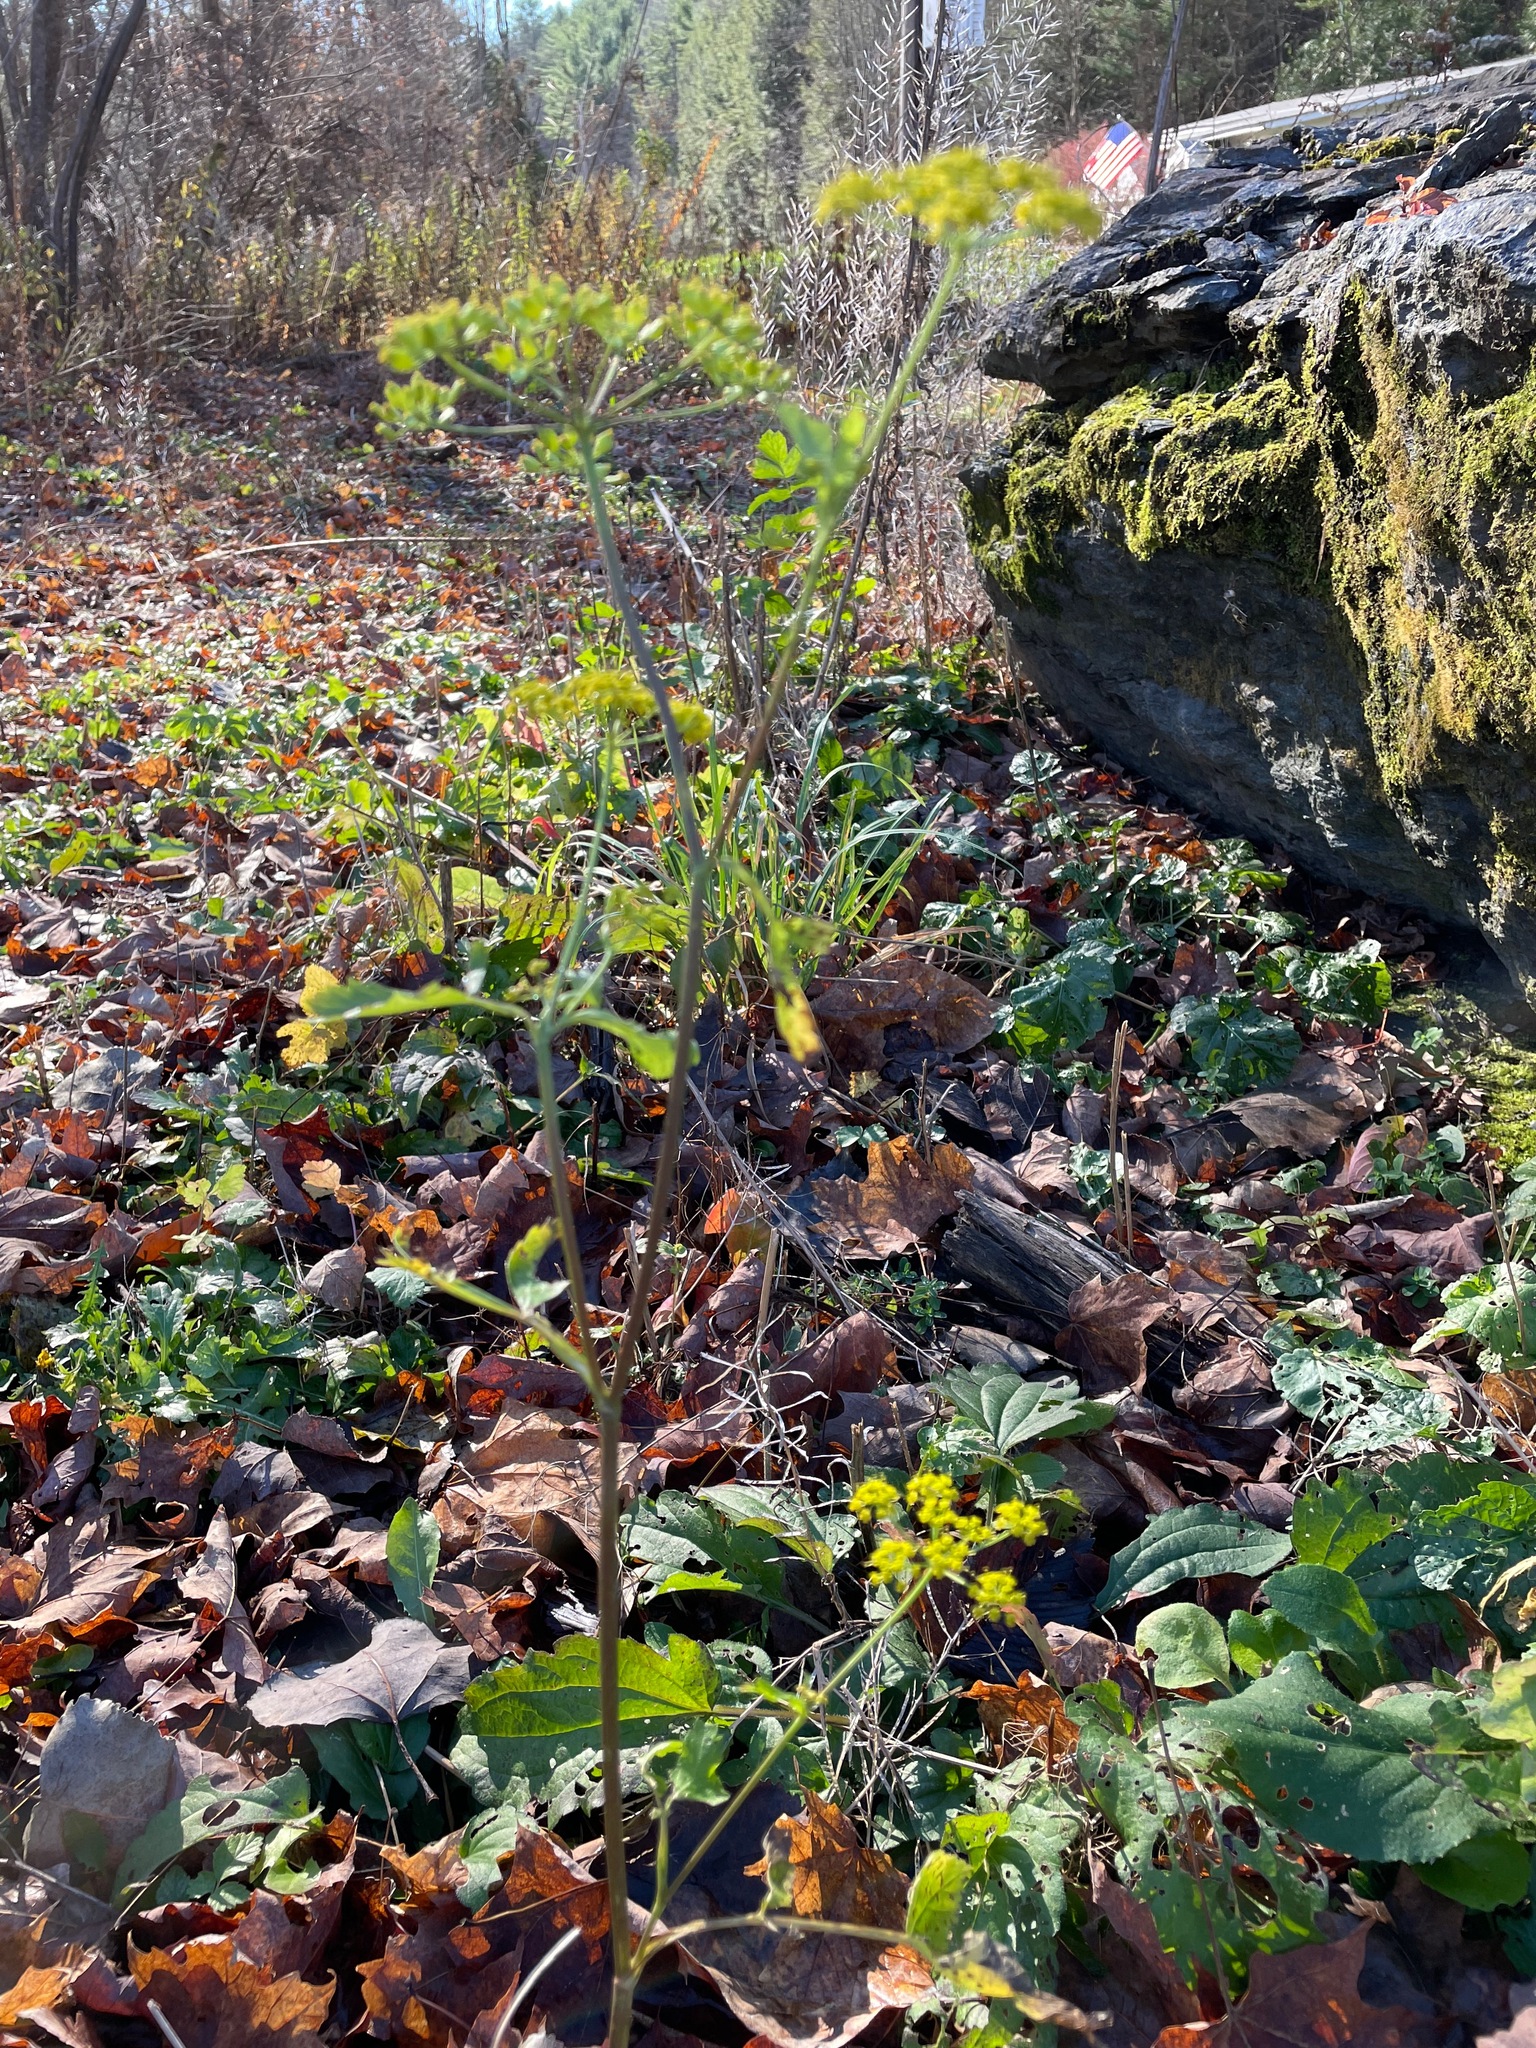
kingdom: Plantae
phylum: Tracheophyta
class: Magnoliopsida
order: Apiales
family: Apiaceae
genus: Pastinaca
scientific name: Pastinaca sativa
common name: Wild parsnip
